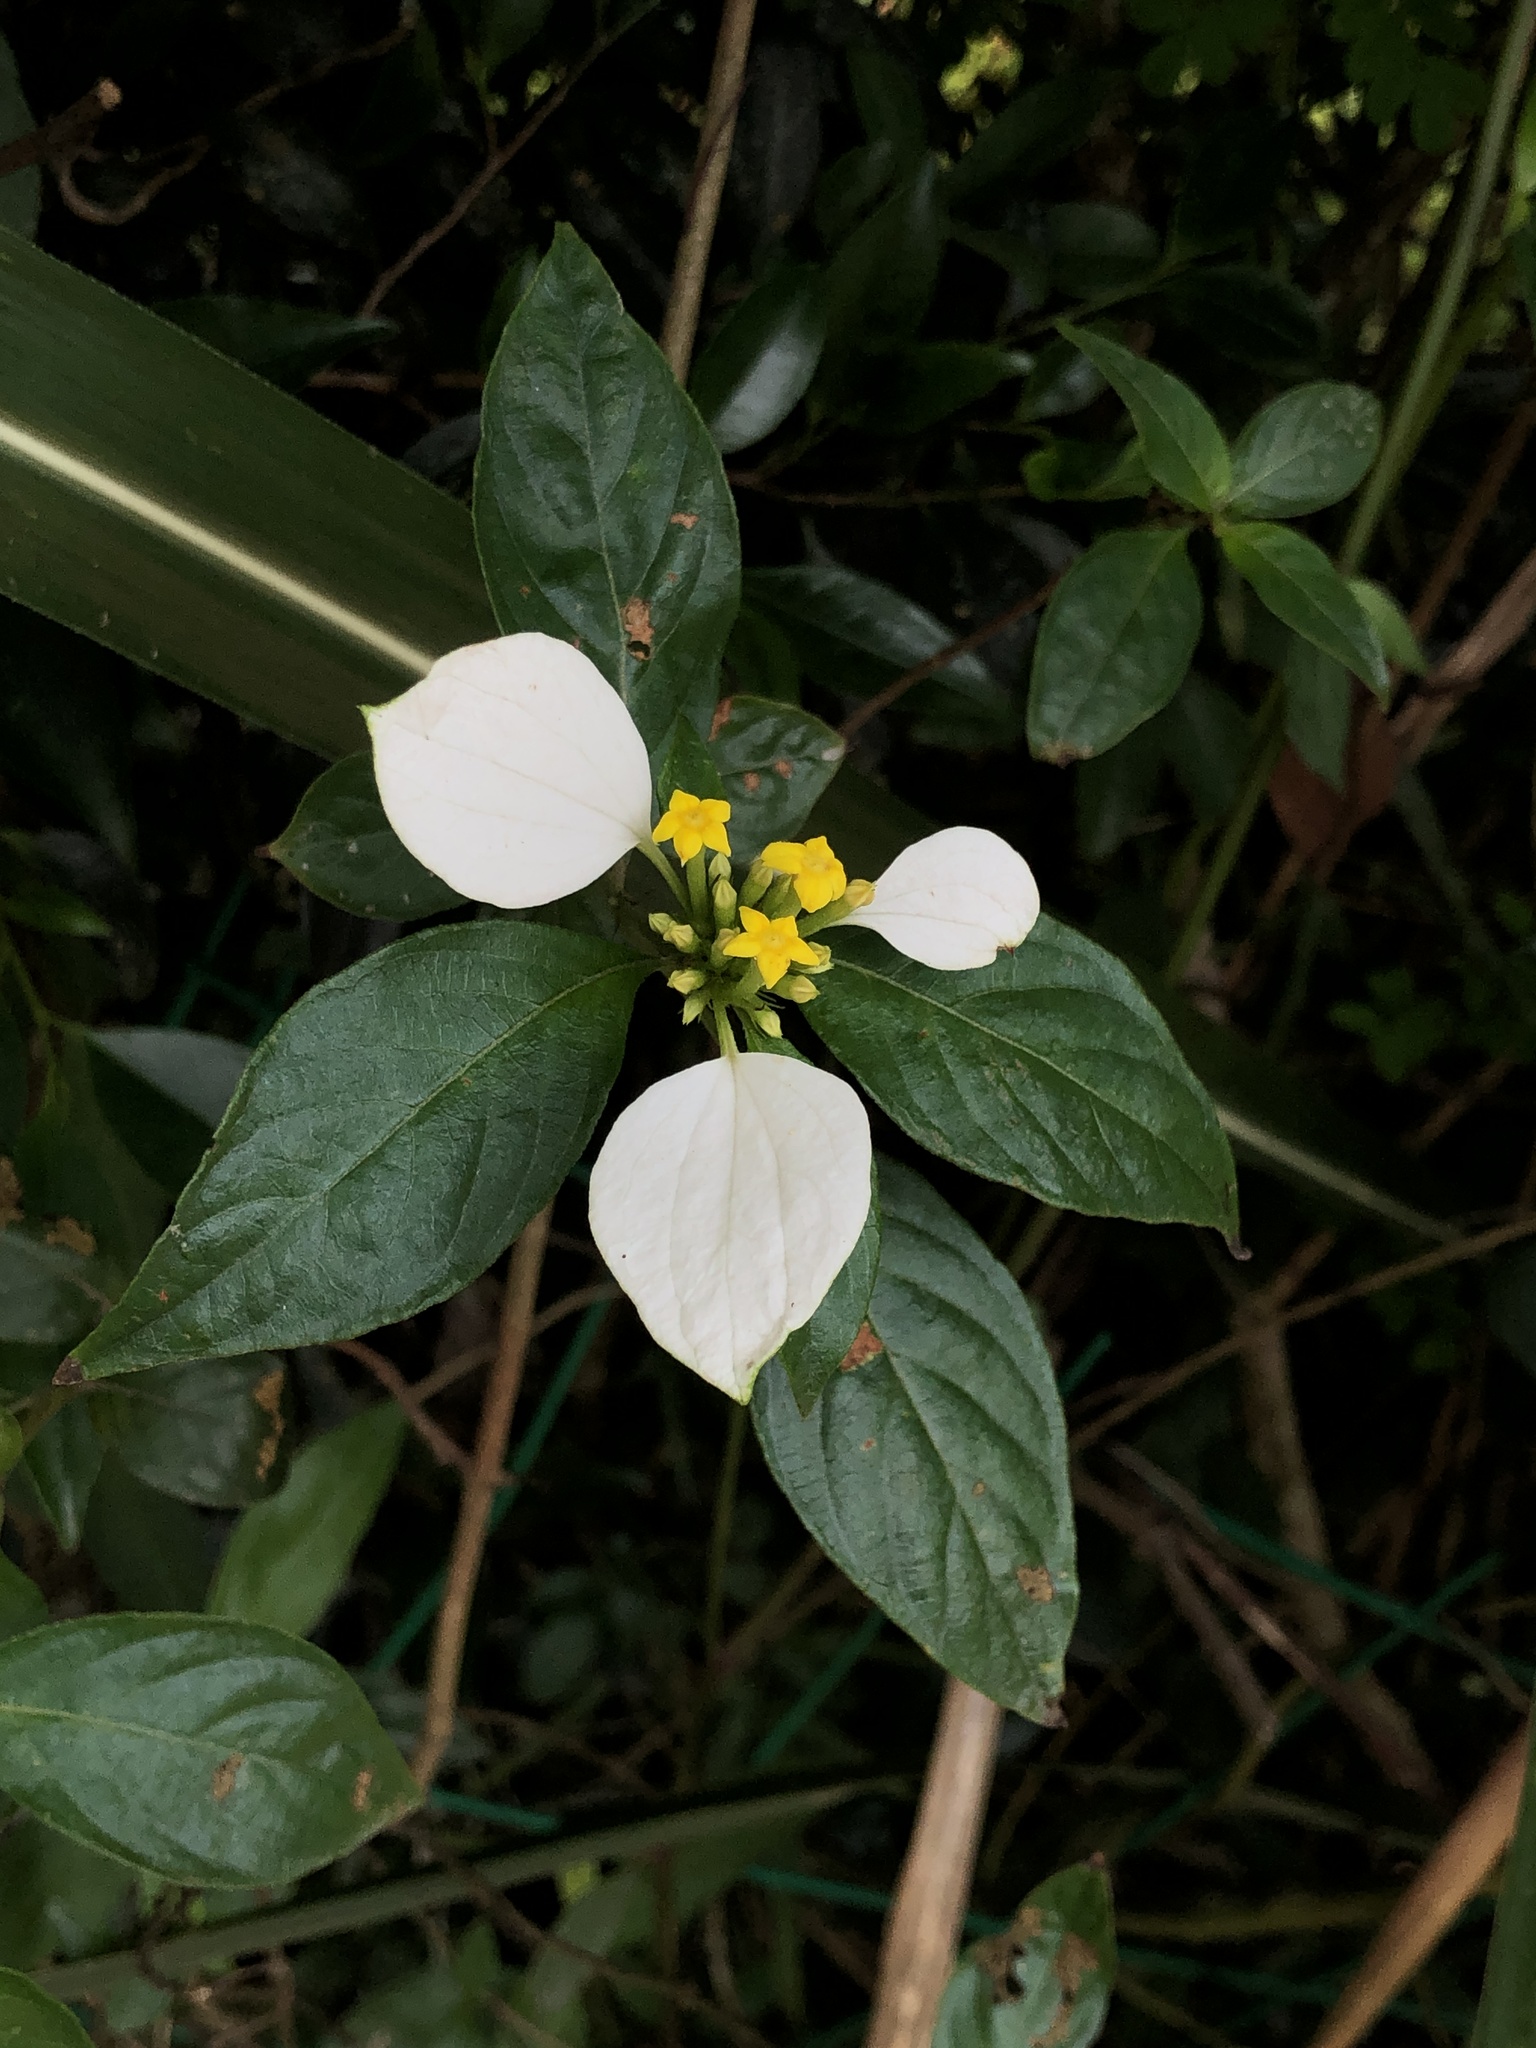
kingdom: Plantae
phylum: Tracheophyta
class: Magnoliopsida
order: Gentianales
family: Rubiaceae
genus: Mussaenda
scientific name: Mussaenda pubescens
